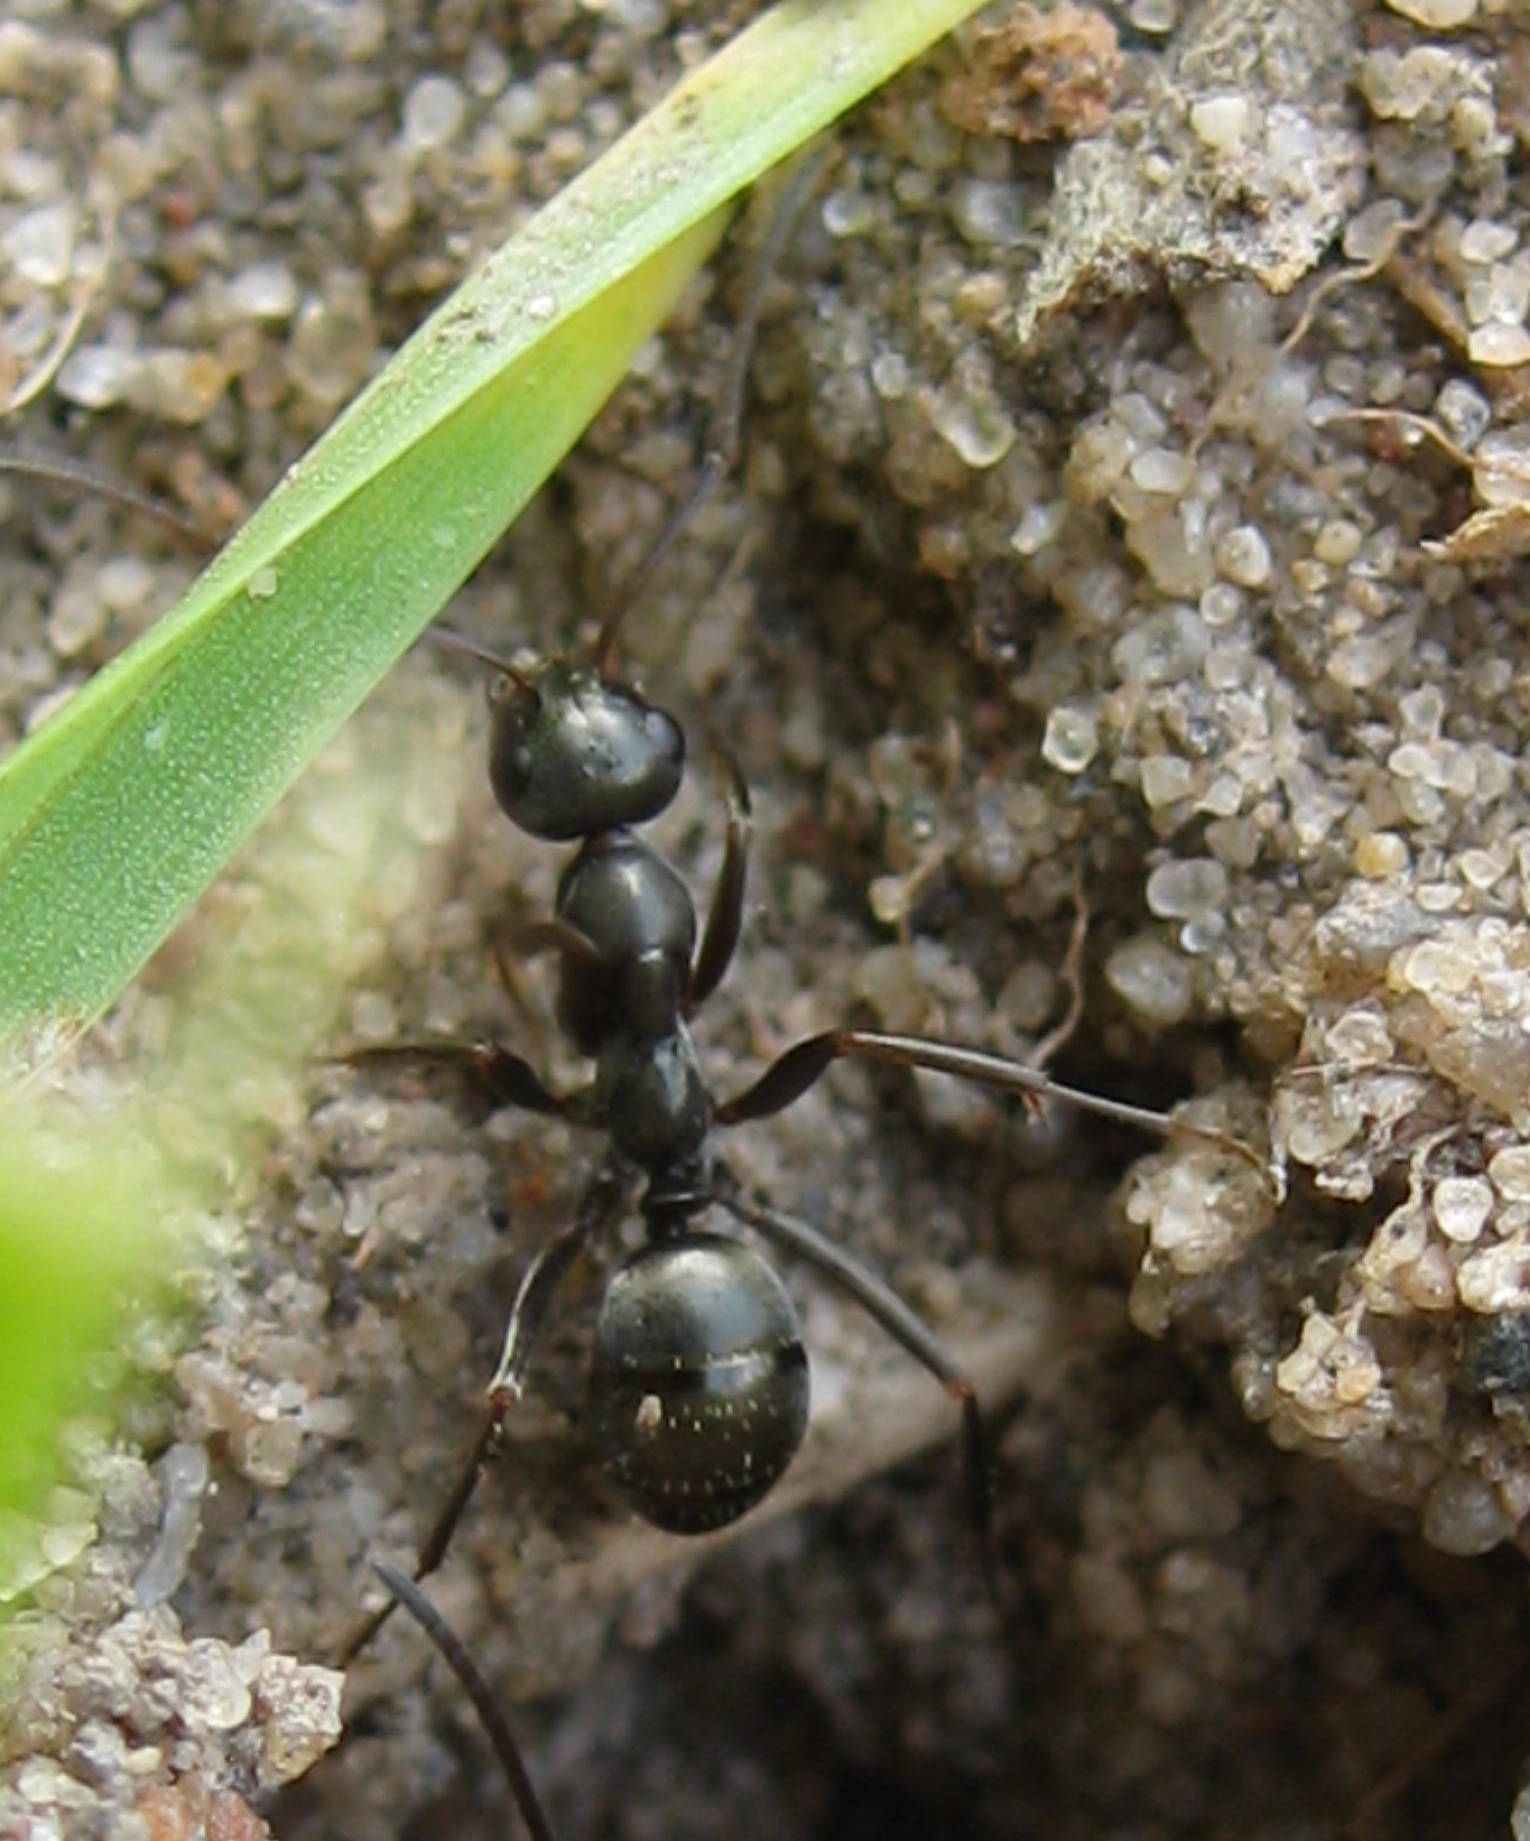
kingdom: Animalia
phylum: Arthropoda
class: Insecta
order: Hymenoptera
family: Formicidae
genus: Formica
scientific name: Formica subsericea
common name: Silky field ant
